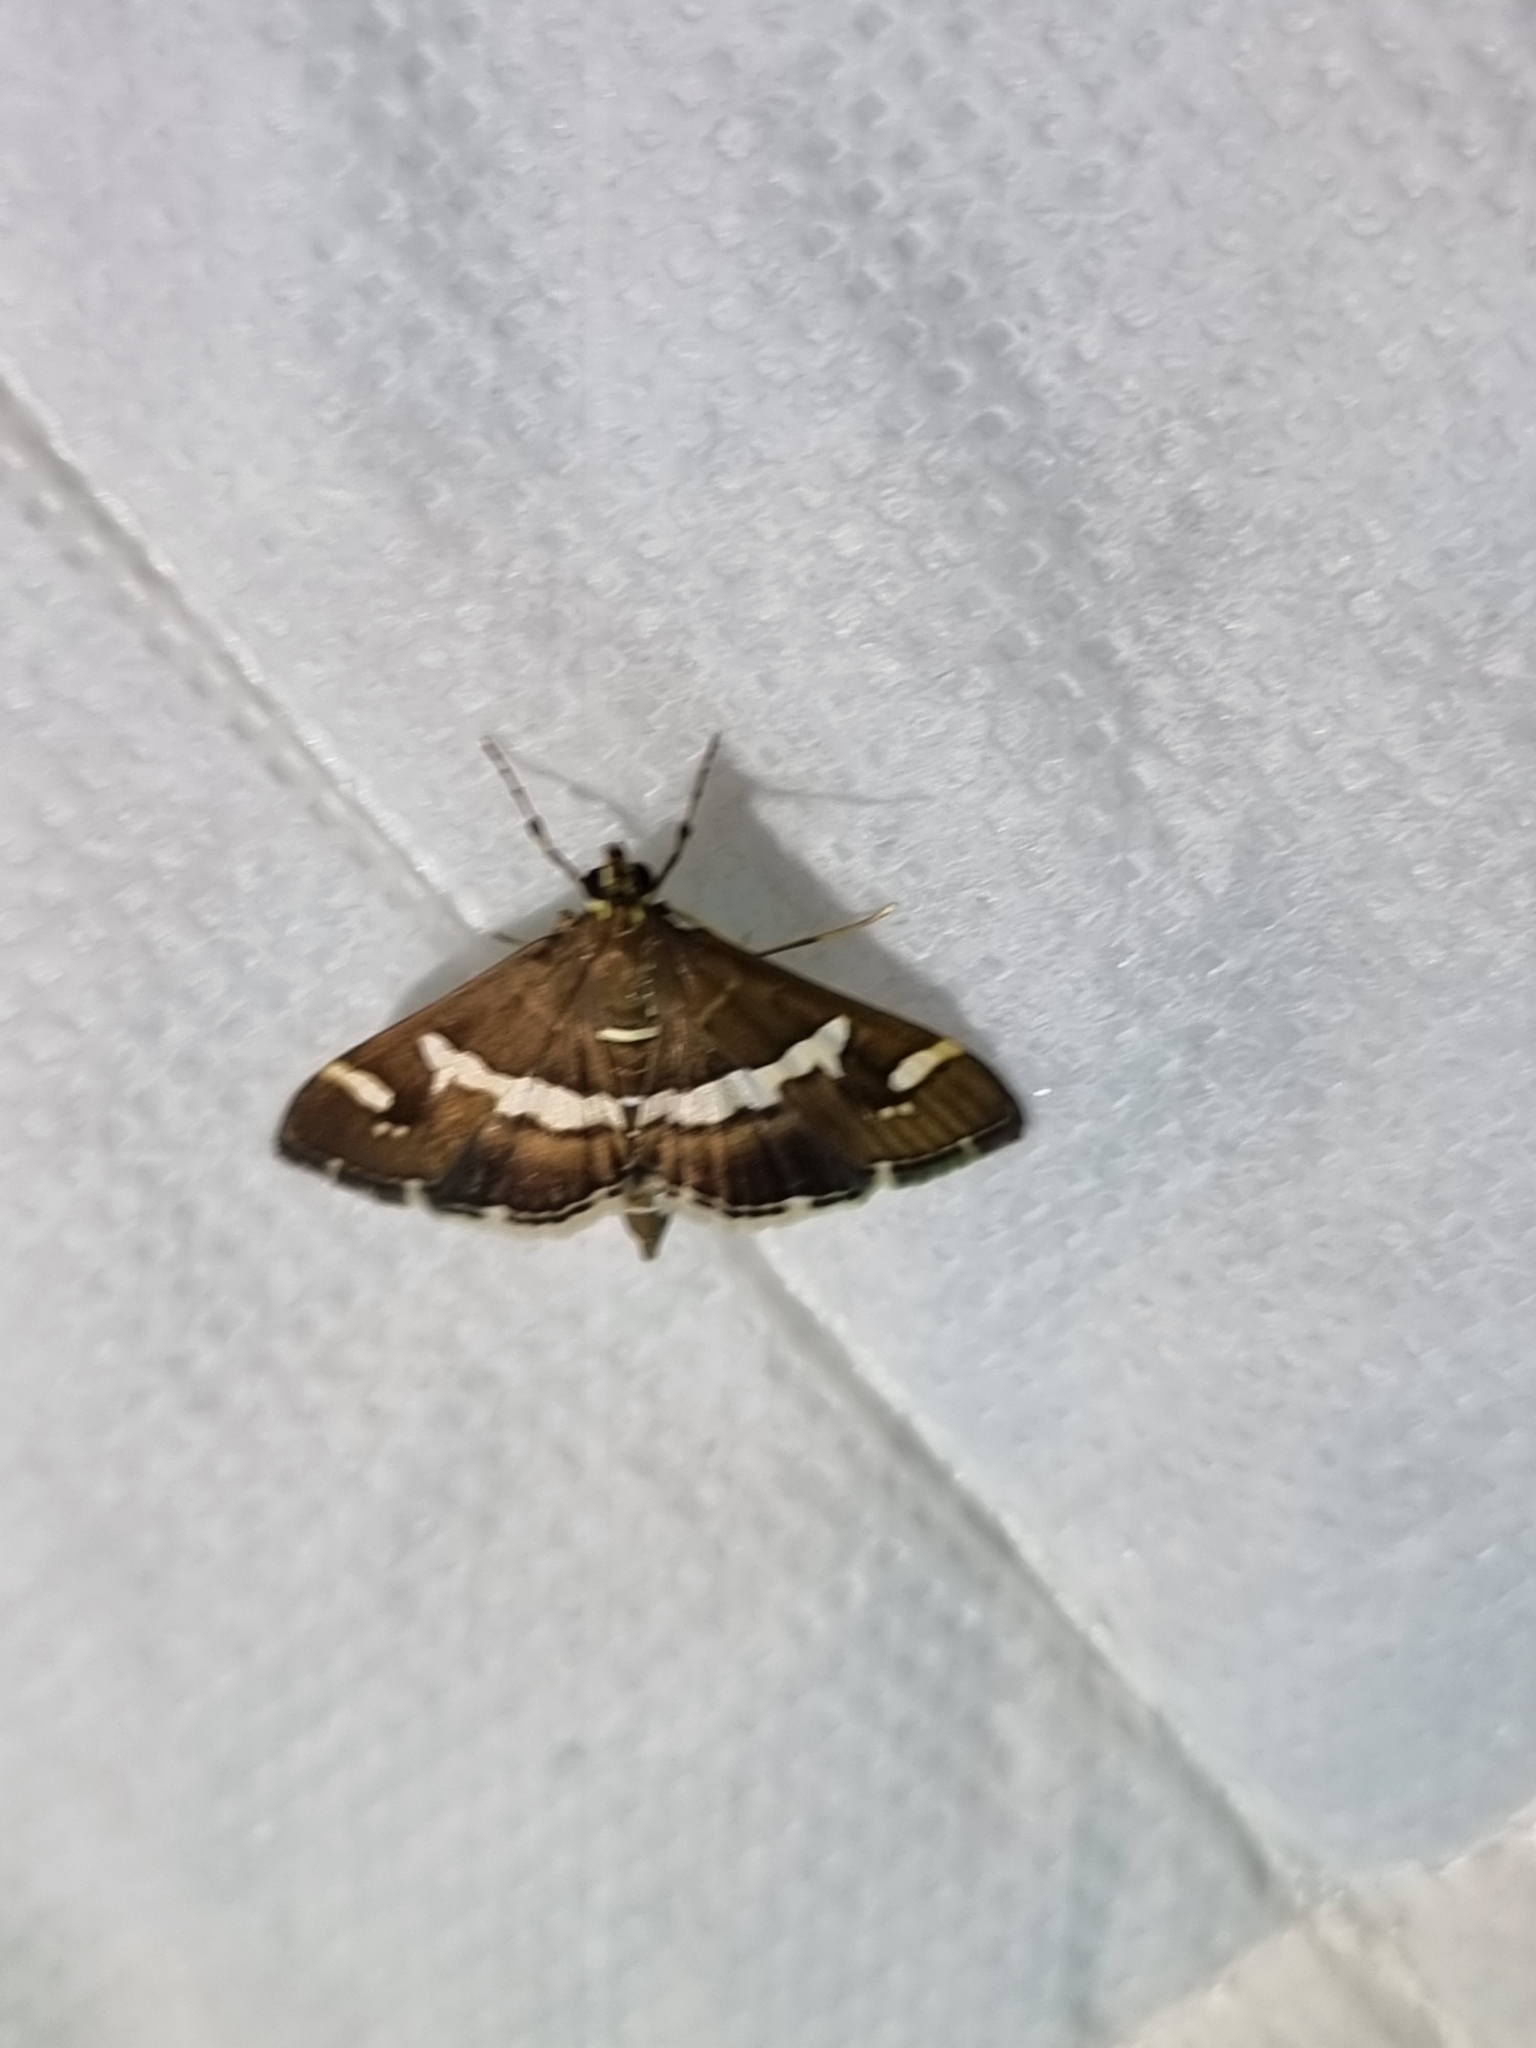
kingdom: Animalia
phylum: Arthropoda
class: Insecta
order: Lepidoptera
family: Crambidae
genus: Spoladea
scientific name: Spoladea recurvalis
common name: Beet webworm moth
